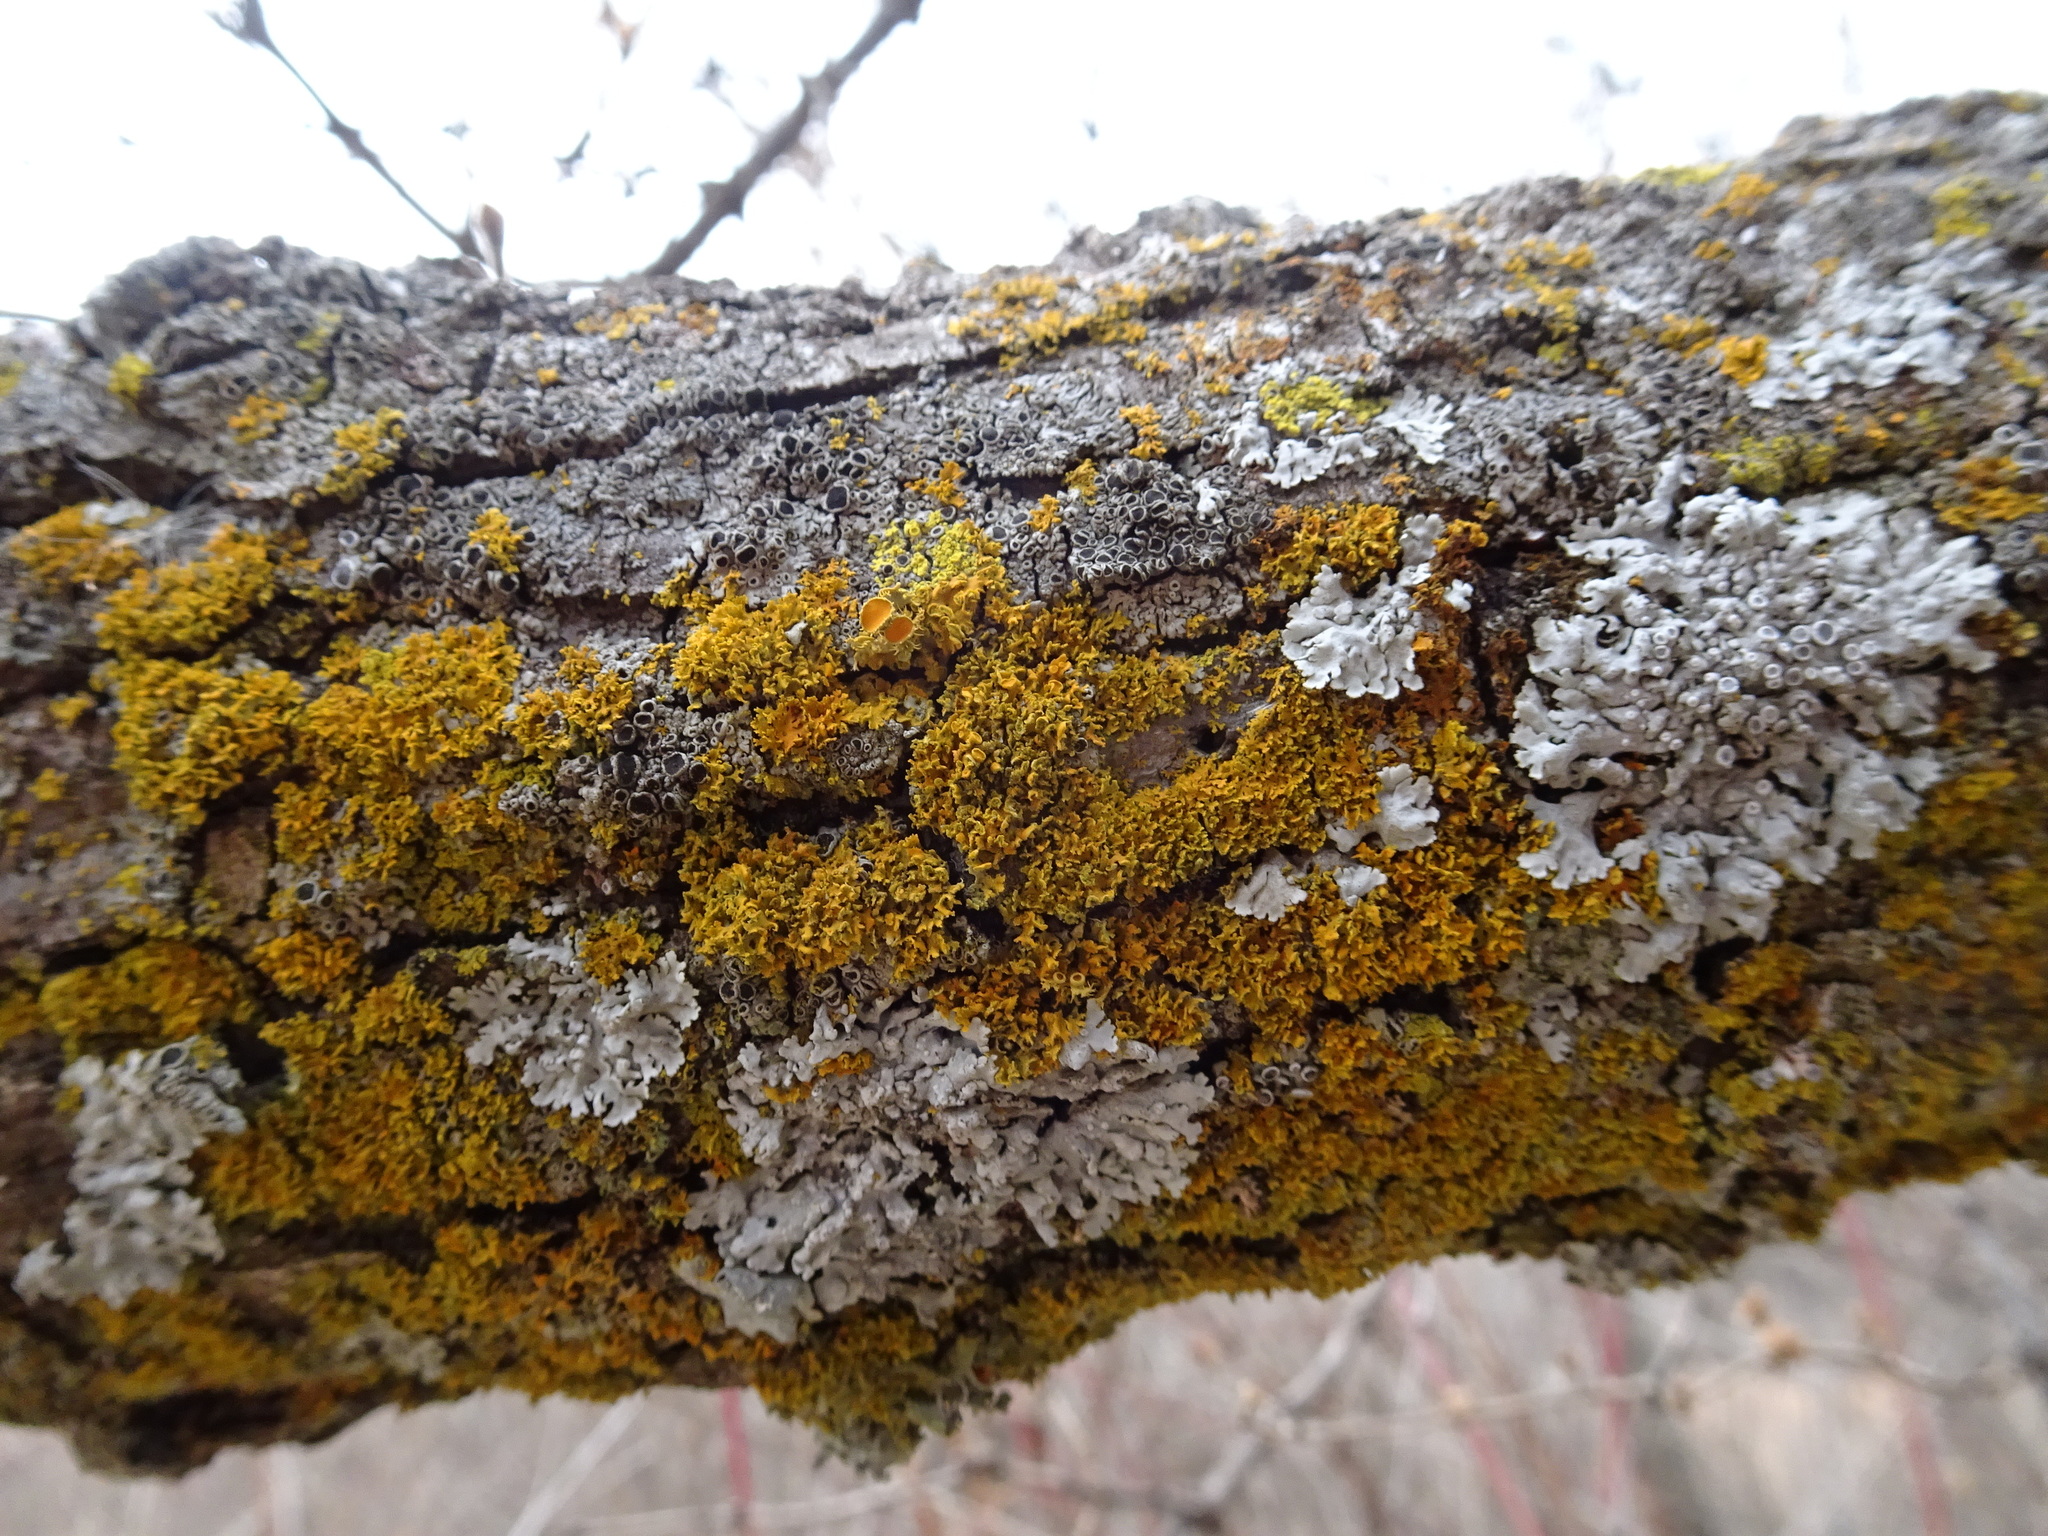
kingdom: Fungi
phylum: Ascomycota
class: Lecanoromycetes
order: Teloschistales
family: Teloschistaceae
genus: Niorma
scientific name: Niorma chrysophthalma
